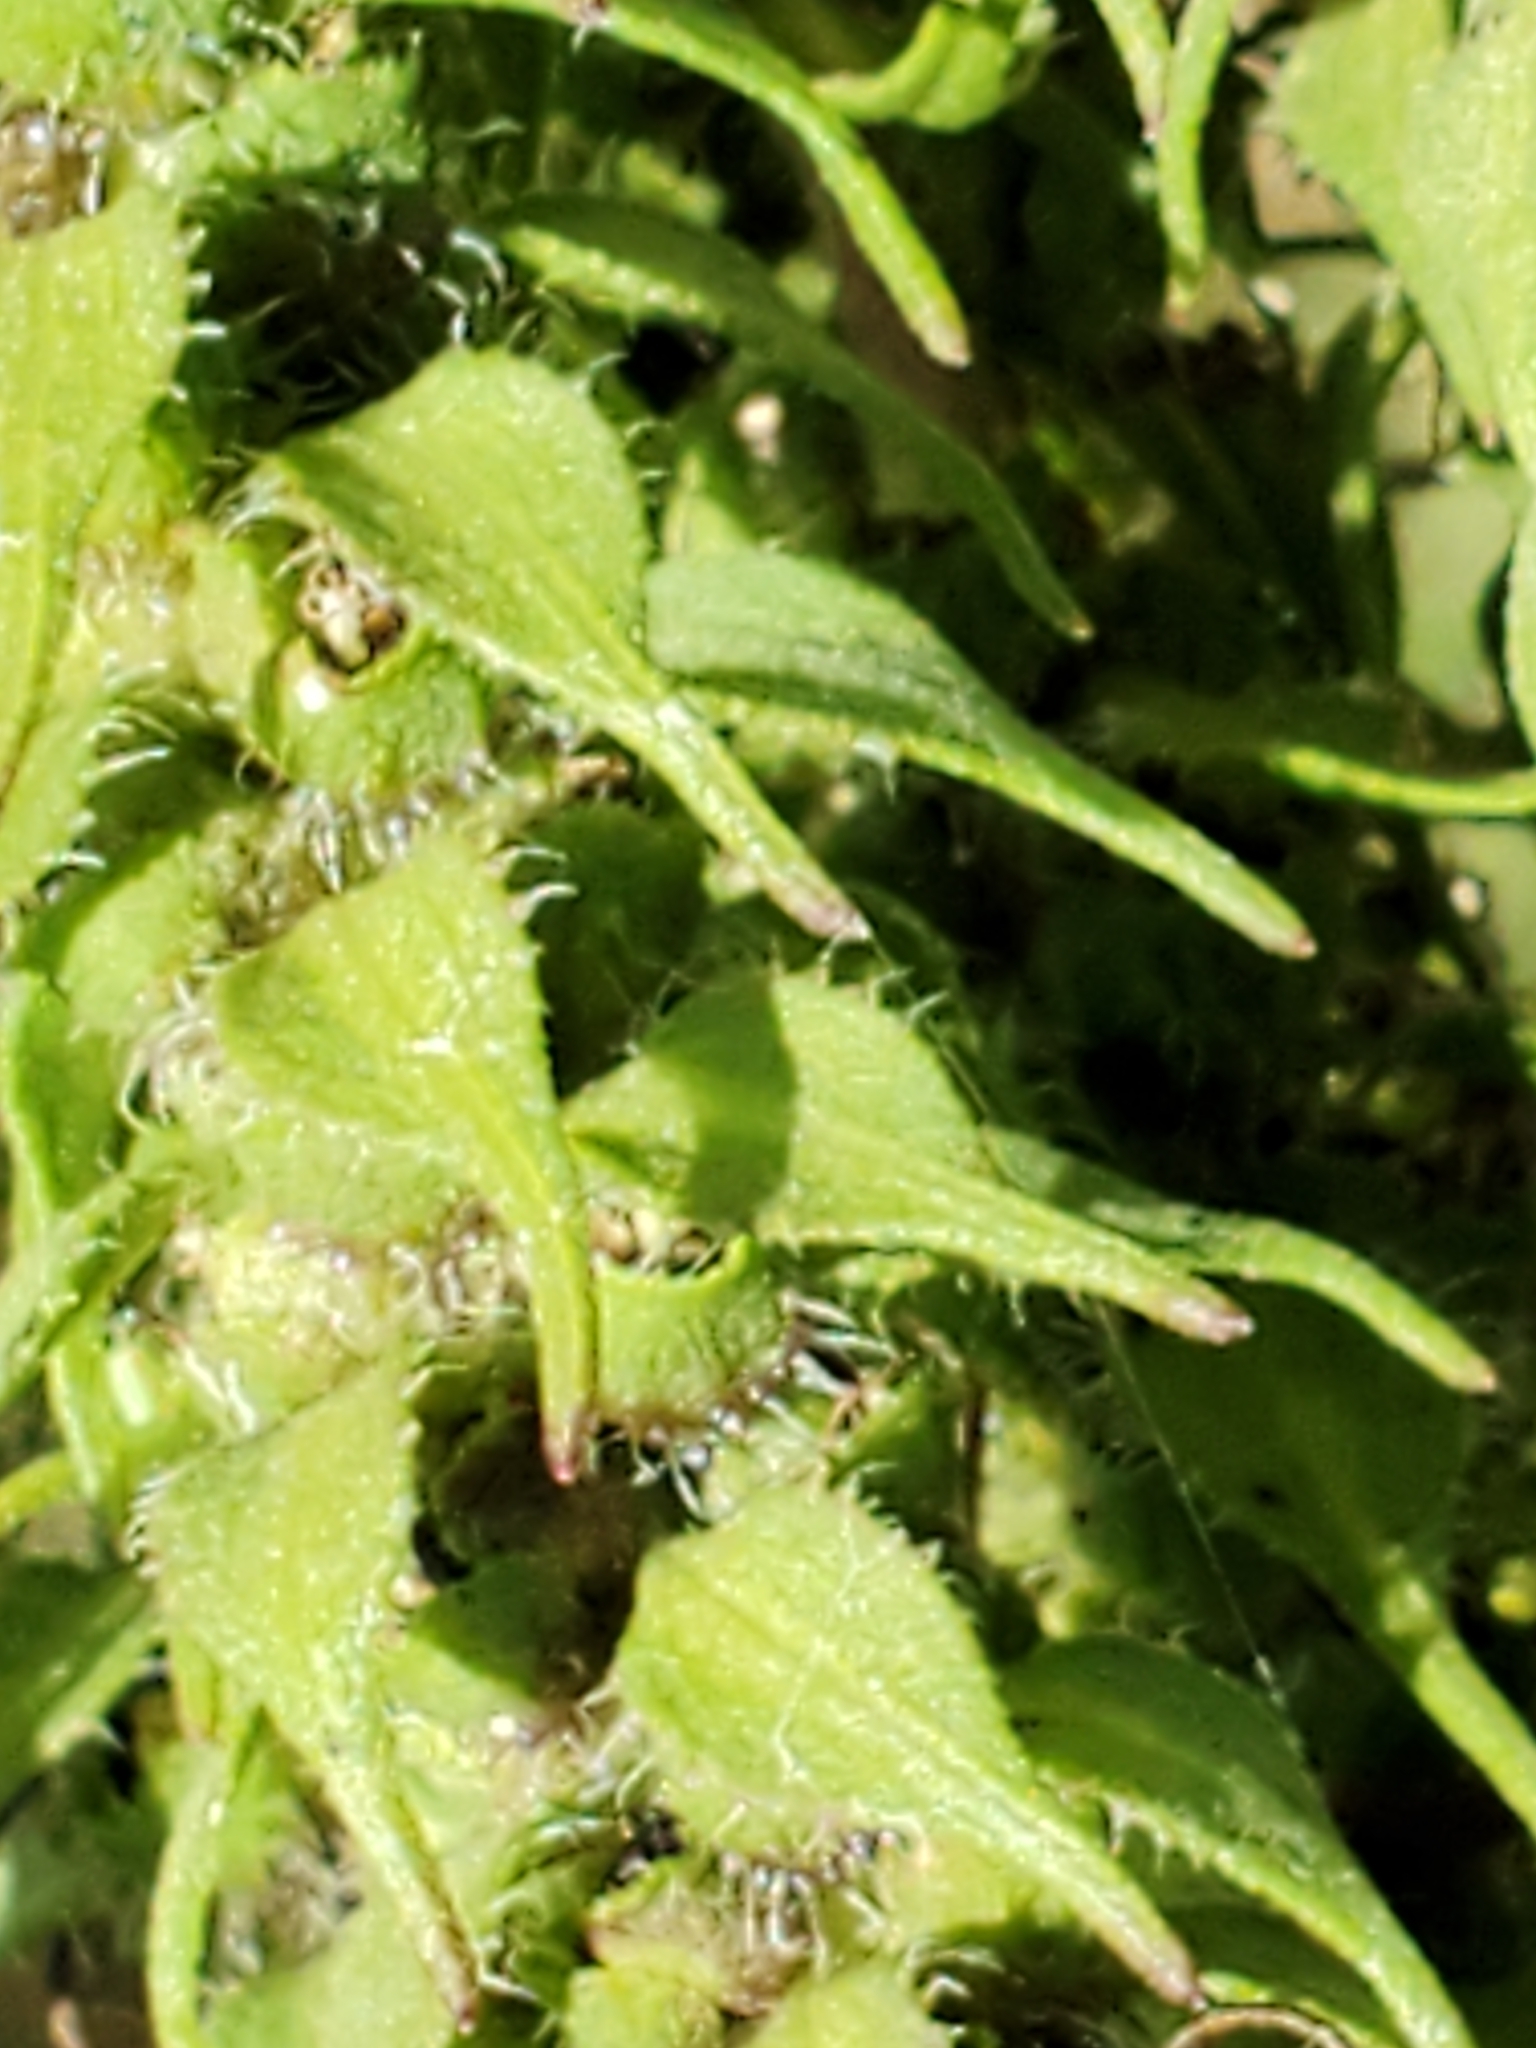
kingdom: Plantae
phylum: Tracheophyta
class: Magnoliopsida
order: Asterales
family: Asteraceae
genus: Iva
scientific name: Iva annua
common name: Marsh-elder
